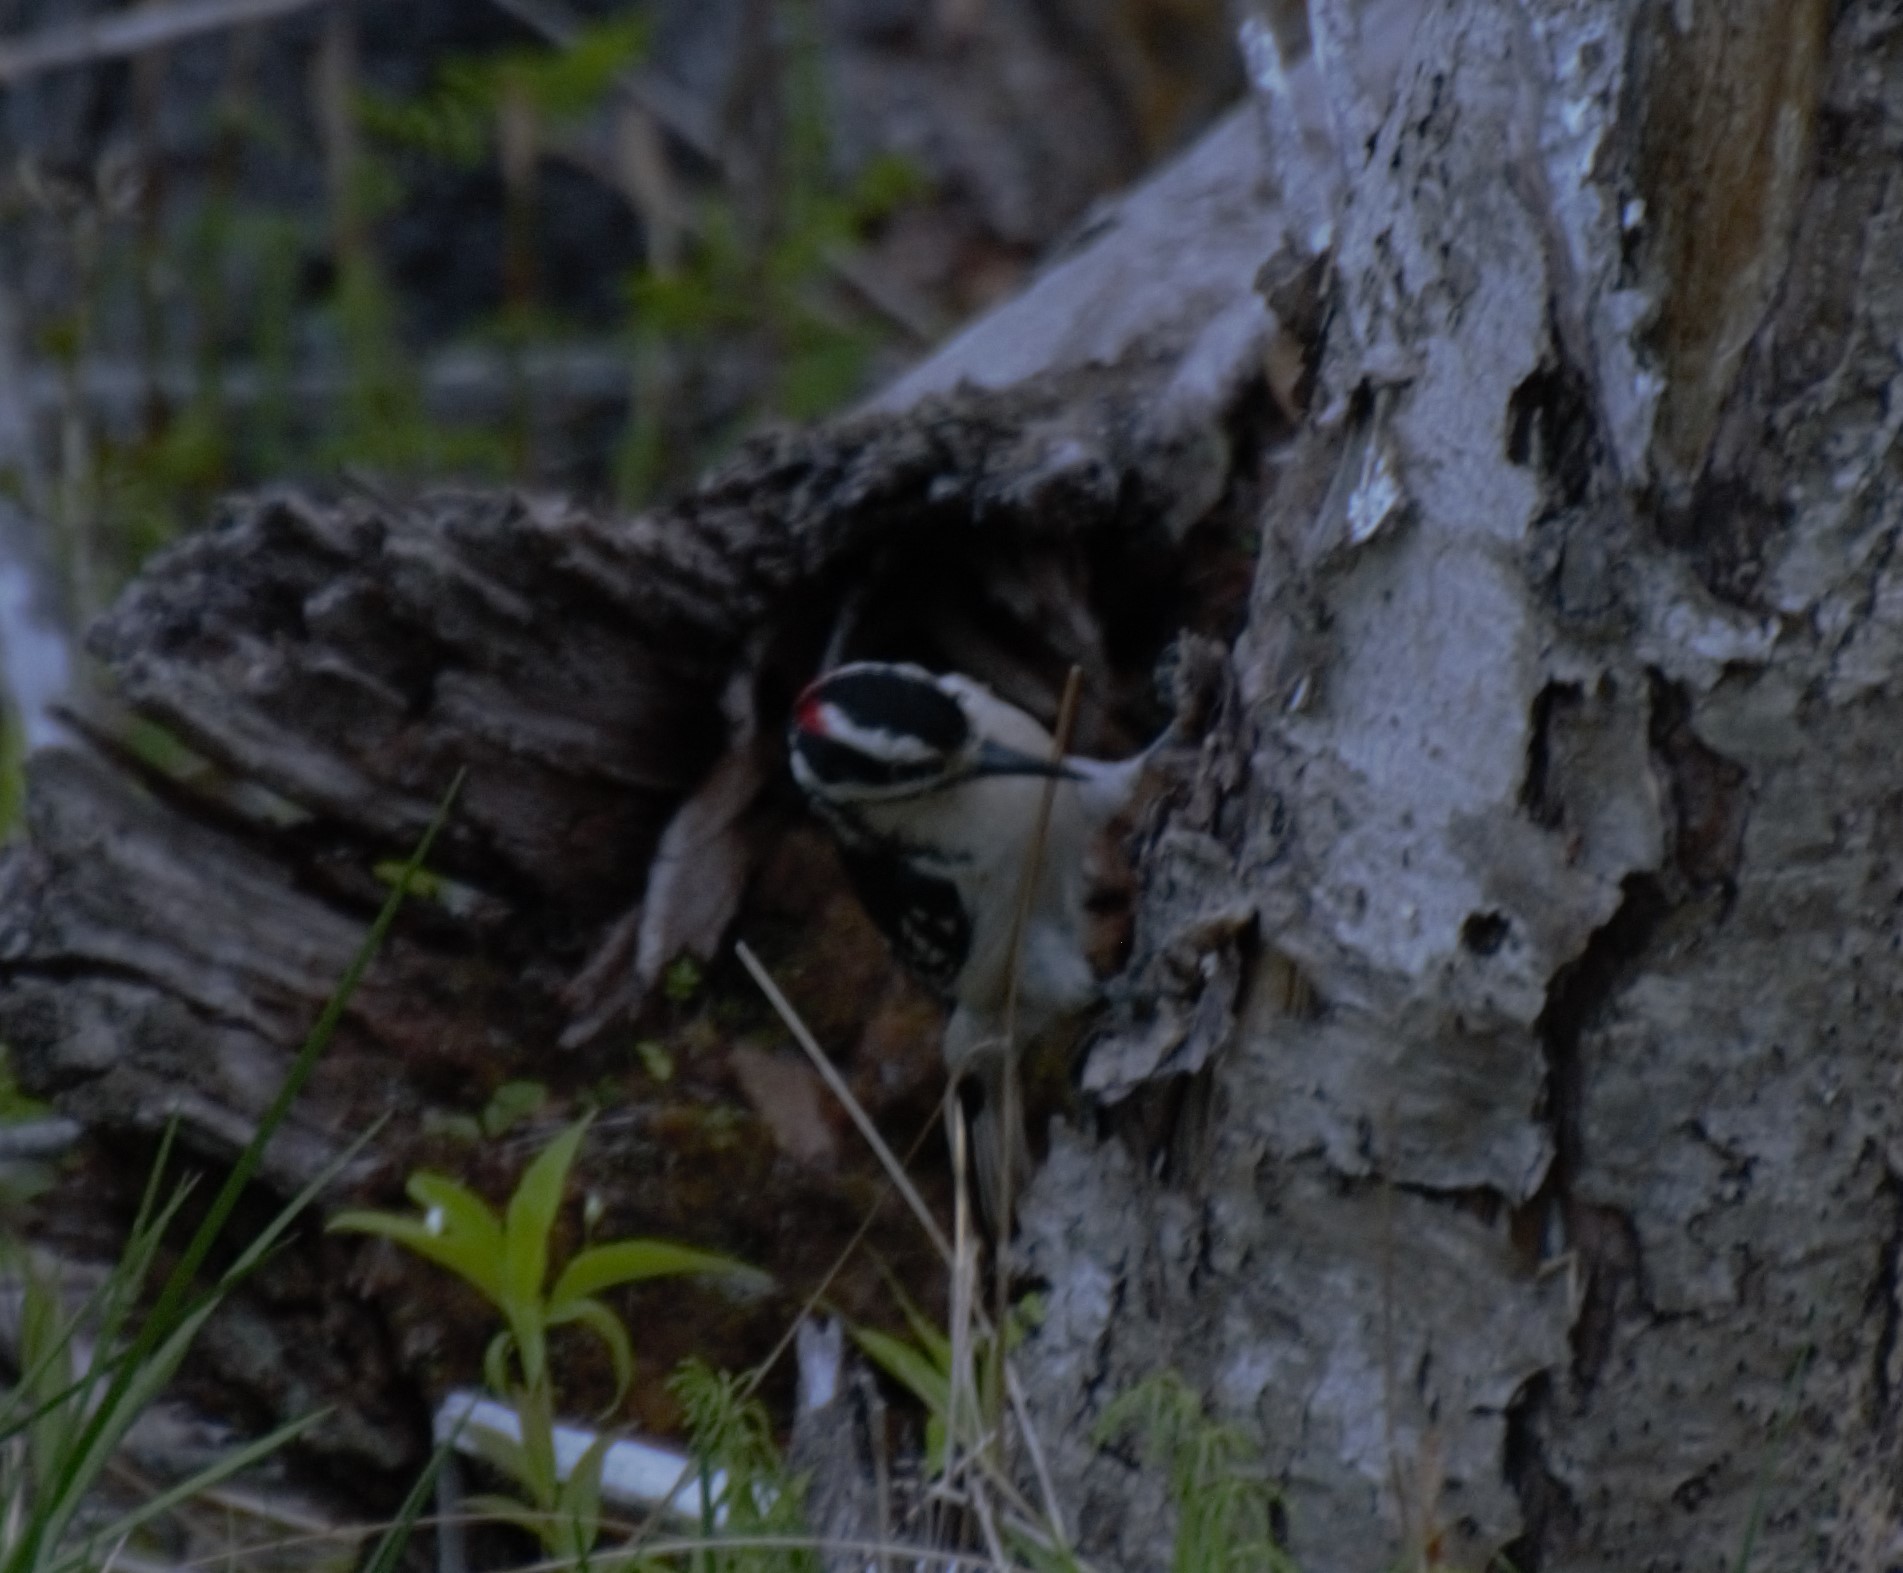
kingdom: Animalia
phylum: Chordata
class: Aves
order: Piciformes
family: Picidae
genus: Leuconotopicus
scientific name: Leuconotopicus villosus
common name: Hairy woodpecker
